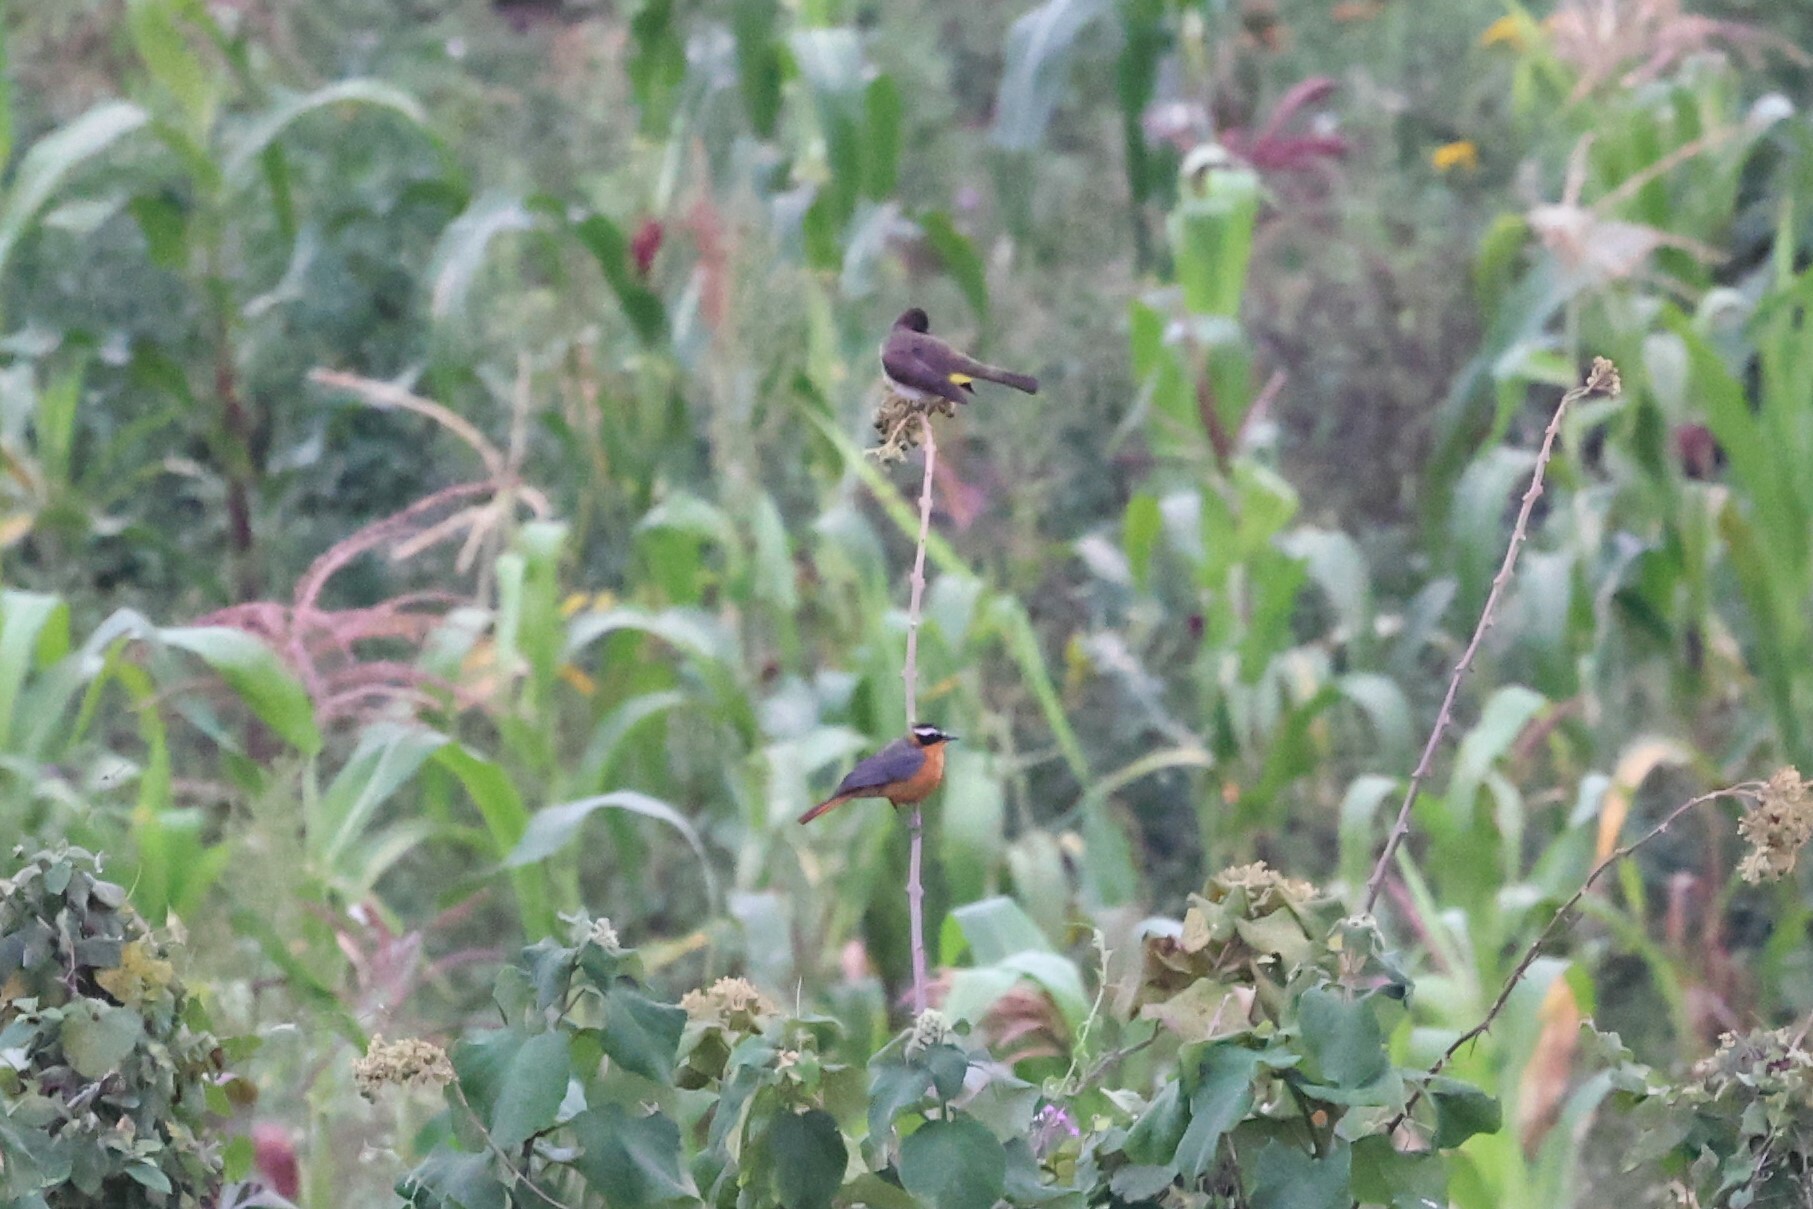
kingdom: Animalia
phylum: Chordata
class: Aves
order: Passeriformes
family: Muscicapidae
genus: Cossypha
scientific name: Cossypha heuglini
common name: White-browed robin-chat
